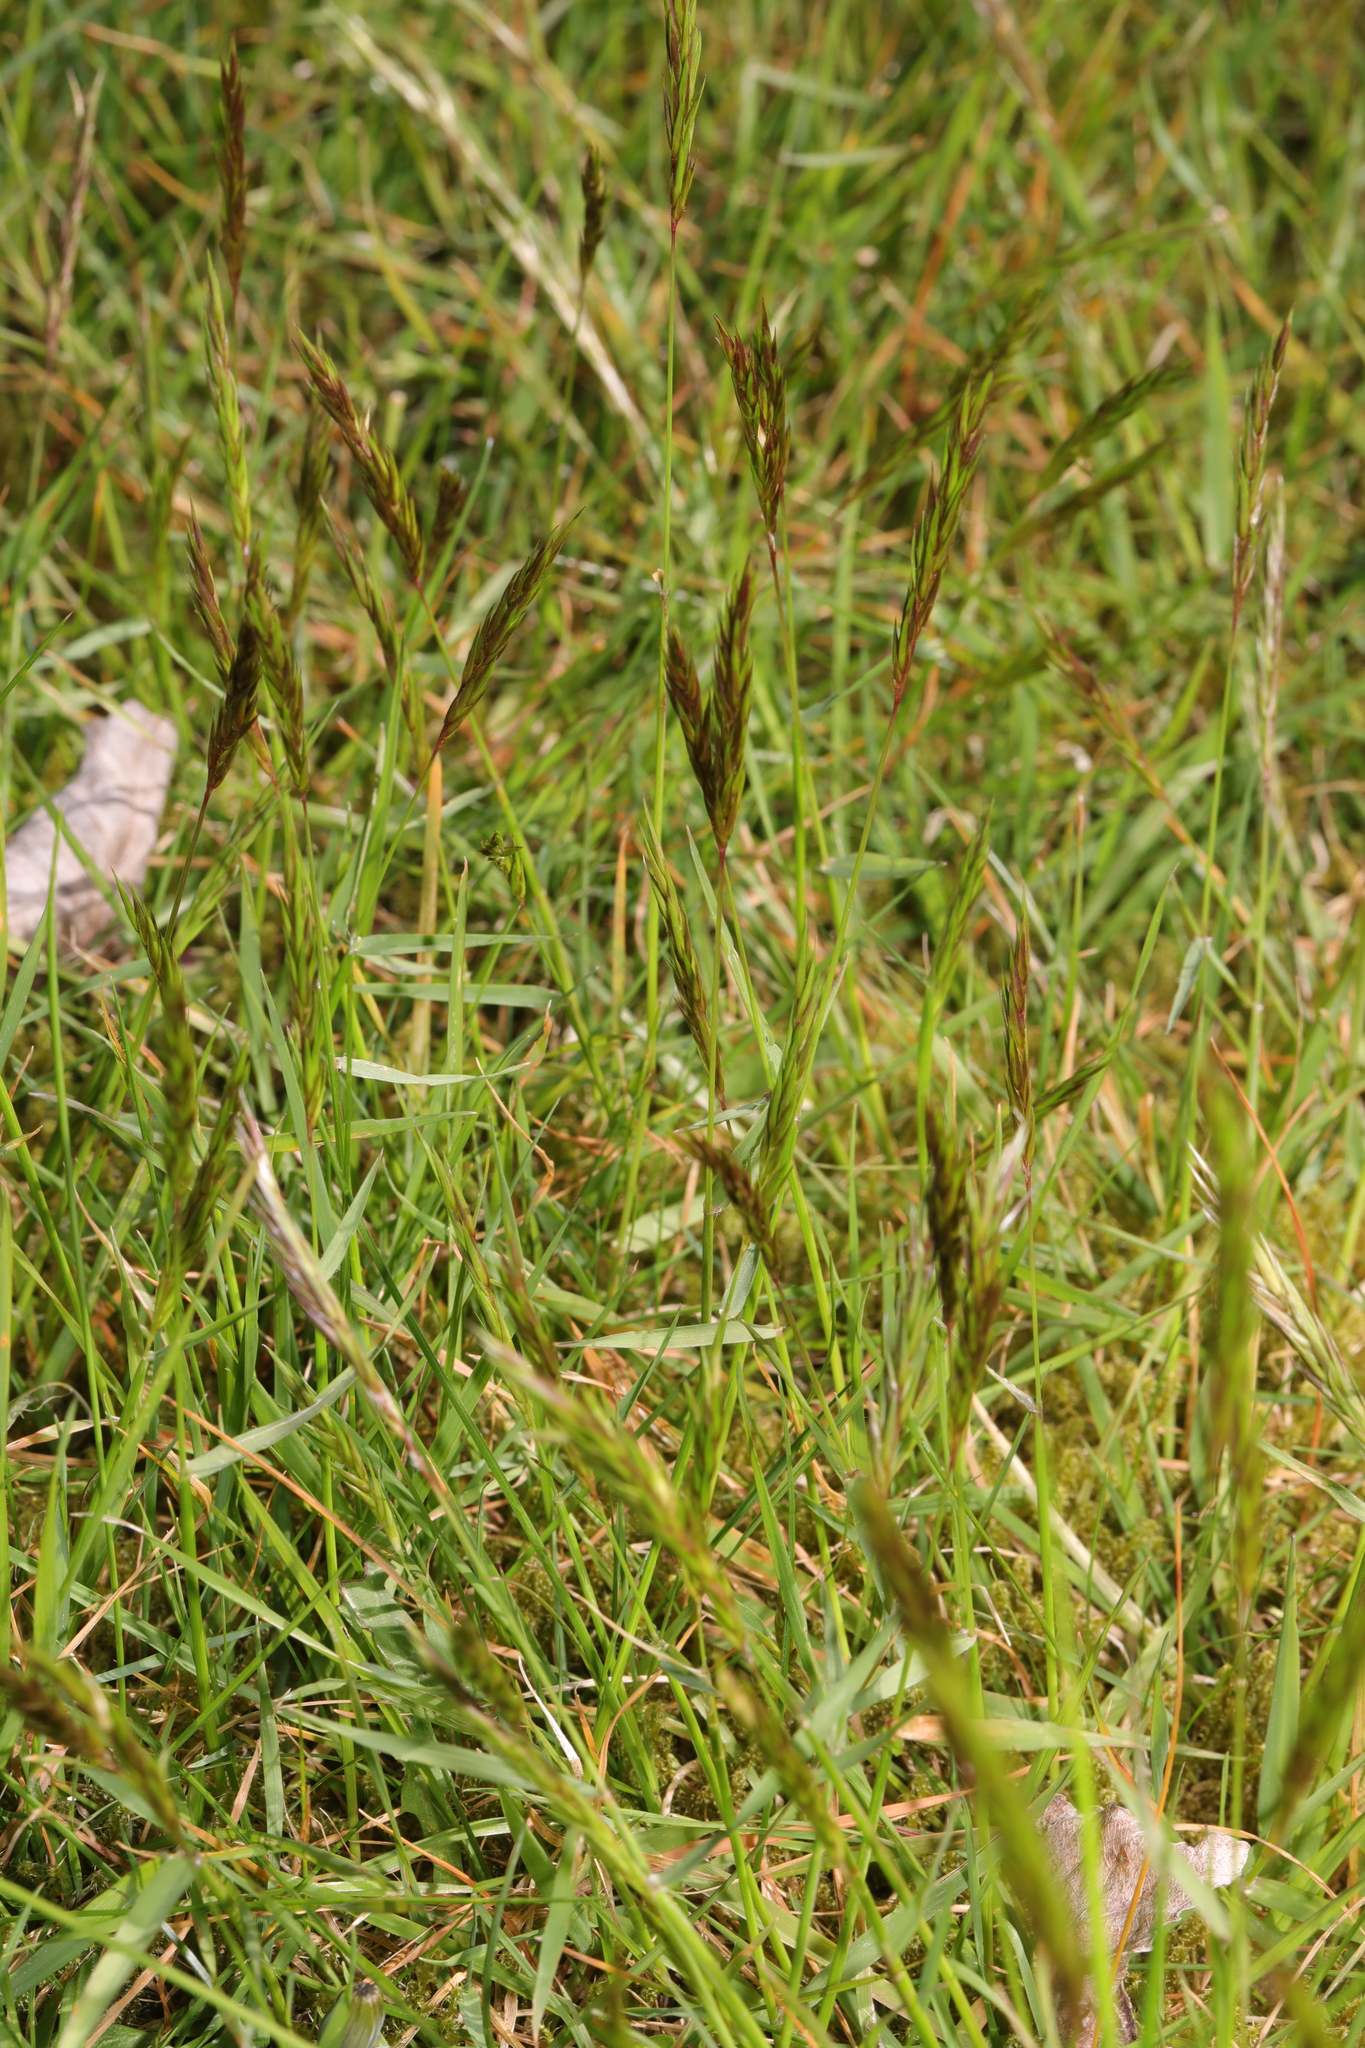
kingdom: Plantae
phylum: Tracheophyta
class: Liliopsida
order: Poales
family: Poaceae
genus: Anthoxanthum
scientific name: Anthoxanthum odoratum
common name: Sweet vernalgrass
